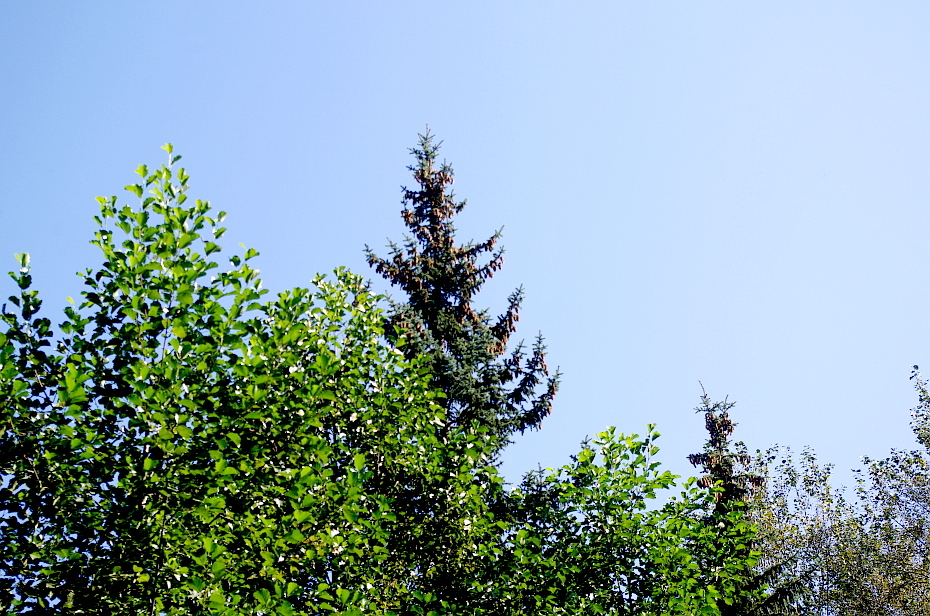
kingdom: Plantae
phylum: Tracheophyta
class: Pinopsida
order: Pinales
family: Pinaceae
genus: Picea
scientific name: Picea abies
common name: Norway spruce
